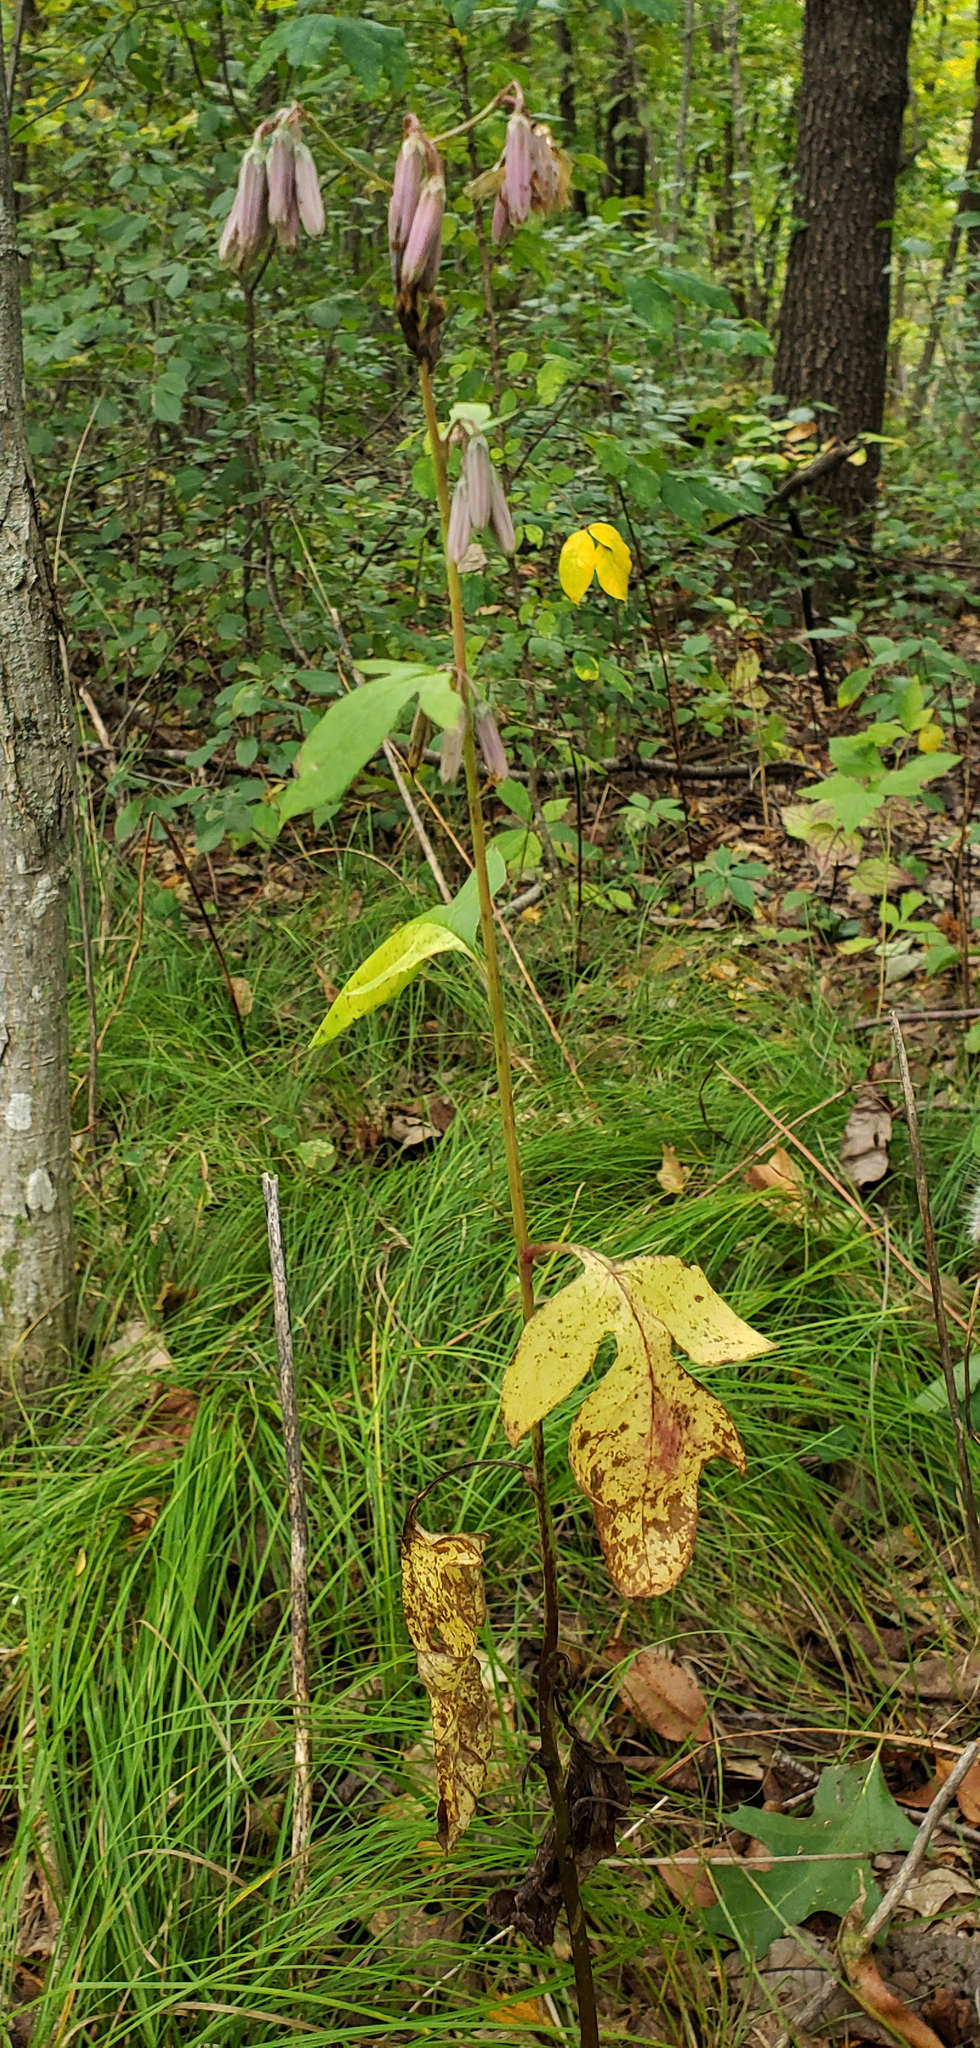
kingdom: Plantae
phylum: Tracheophyta
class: Magnoliopsida
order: Asterales
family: Asteraceae
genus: Nabalus
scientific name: Nabalus albus
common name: White rattlesnakeroot
